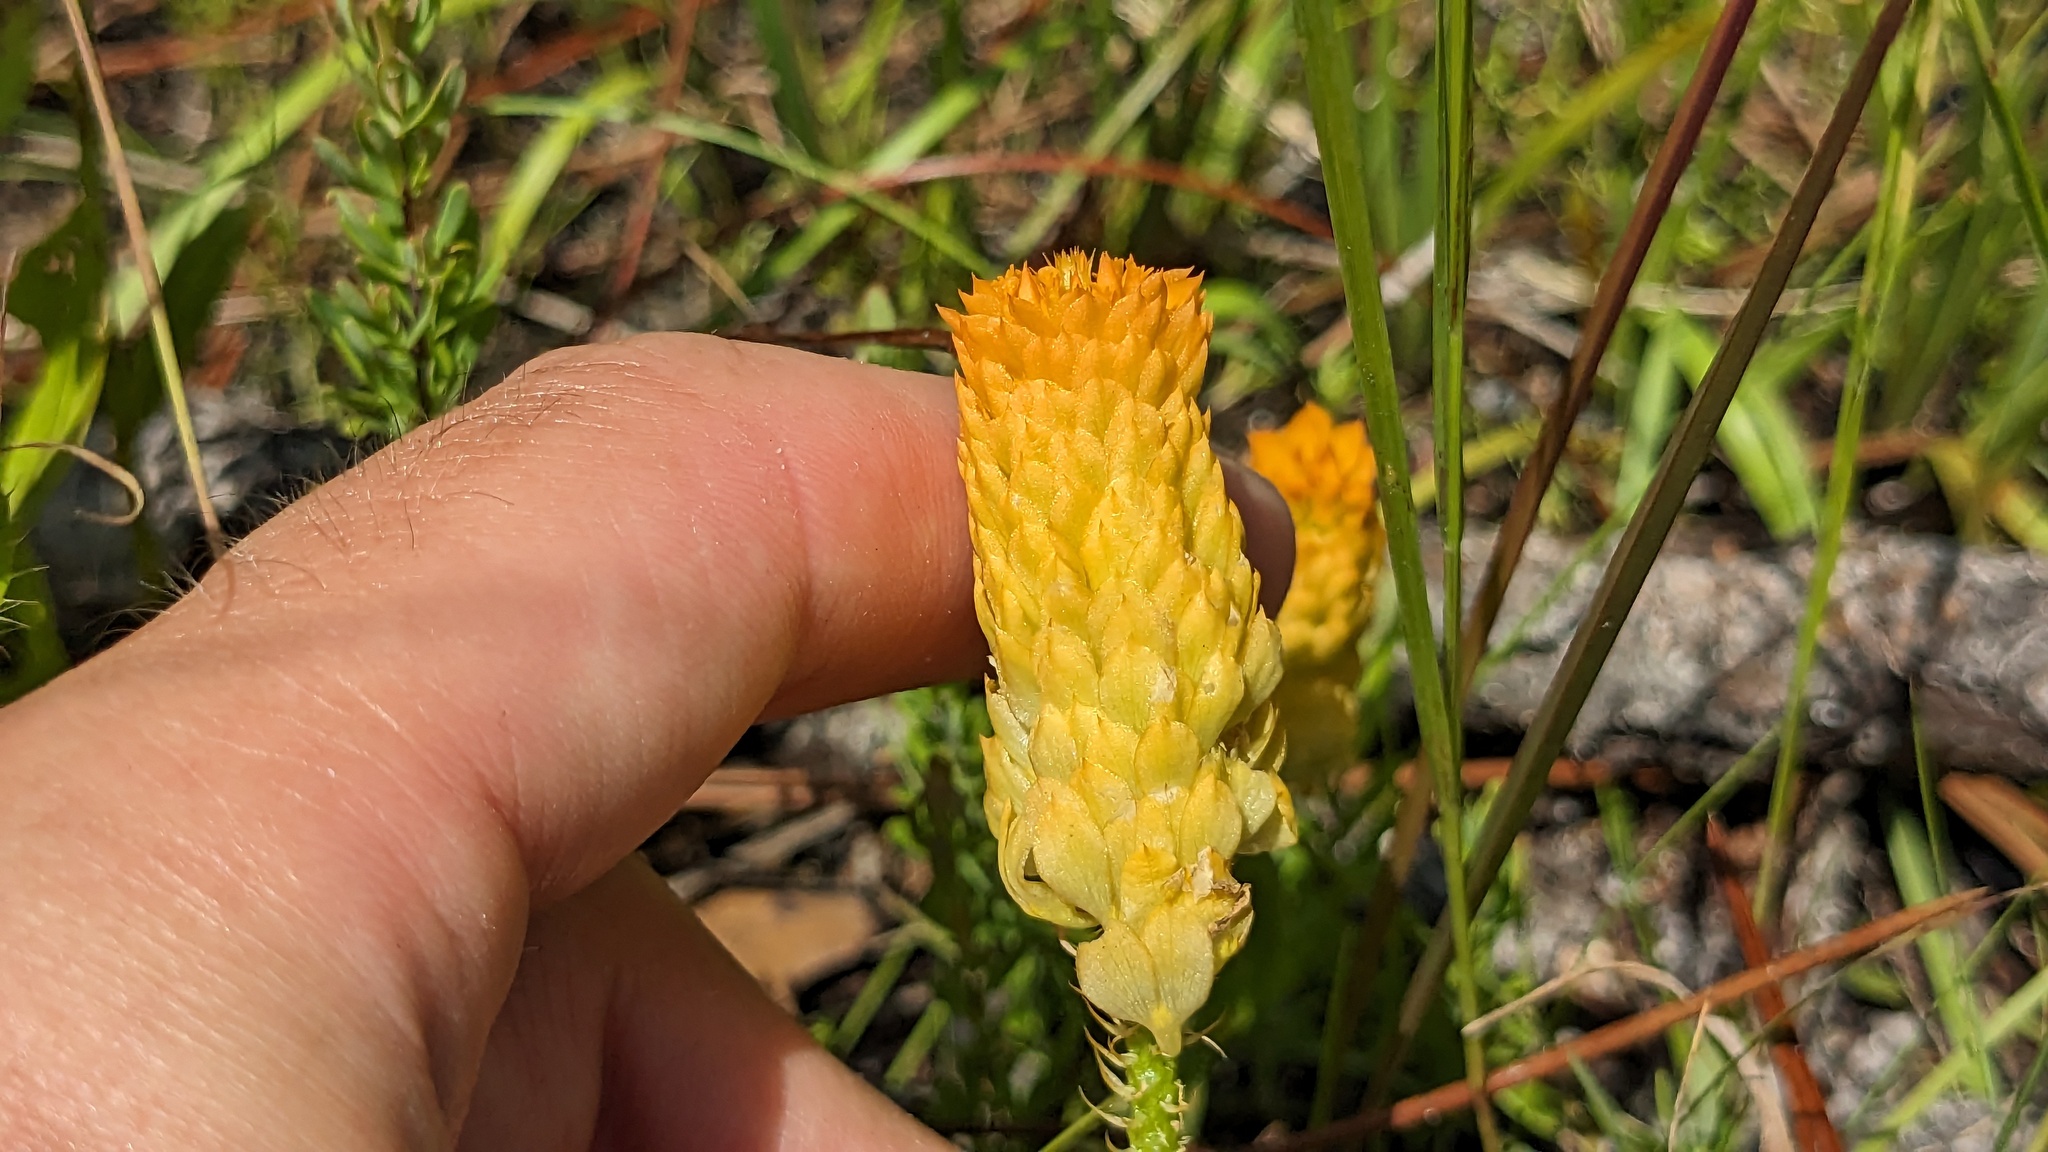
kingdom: Plantae
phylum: Tracheophyta
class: Magnoliopsida
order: Fabales
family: Polygalaceae
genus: Polygala
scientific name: Polygala lutea
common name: Orange milkwort
